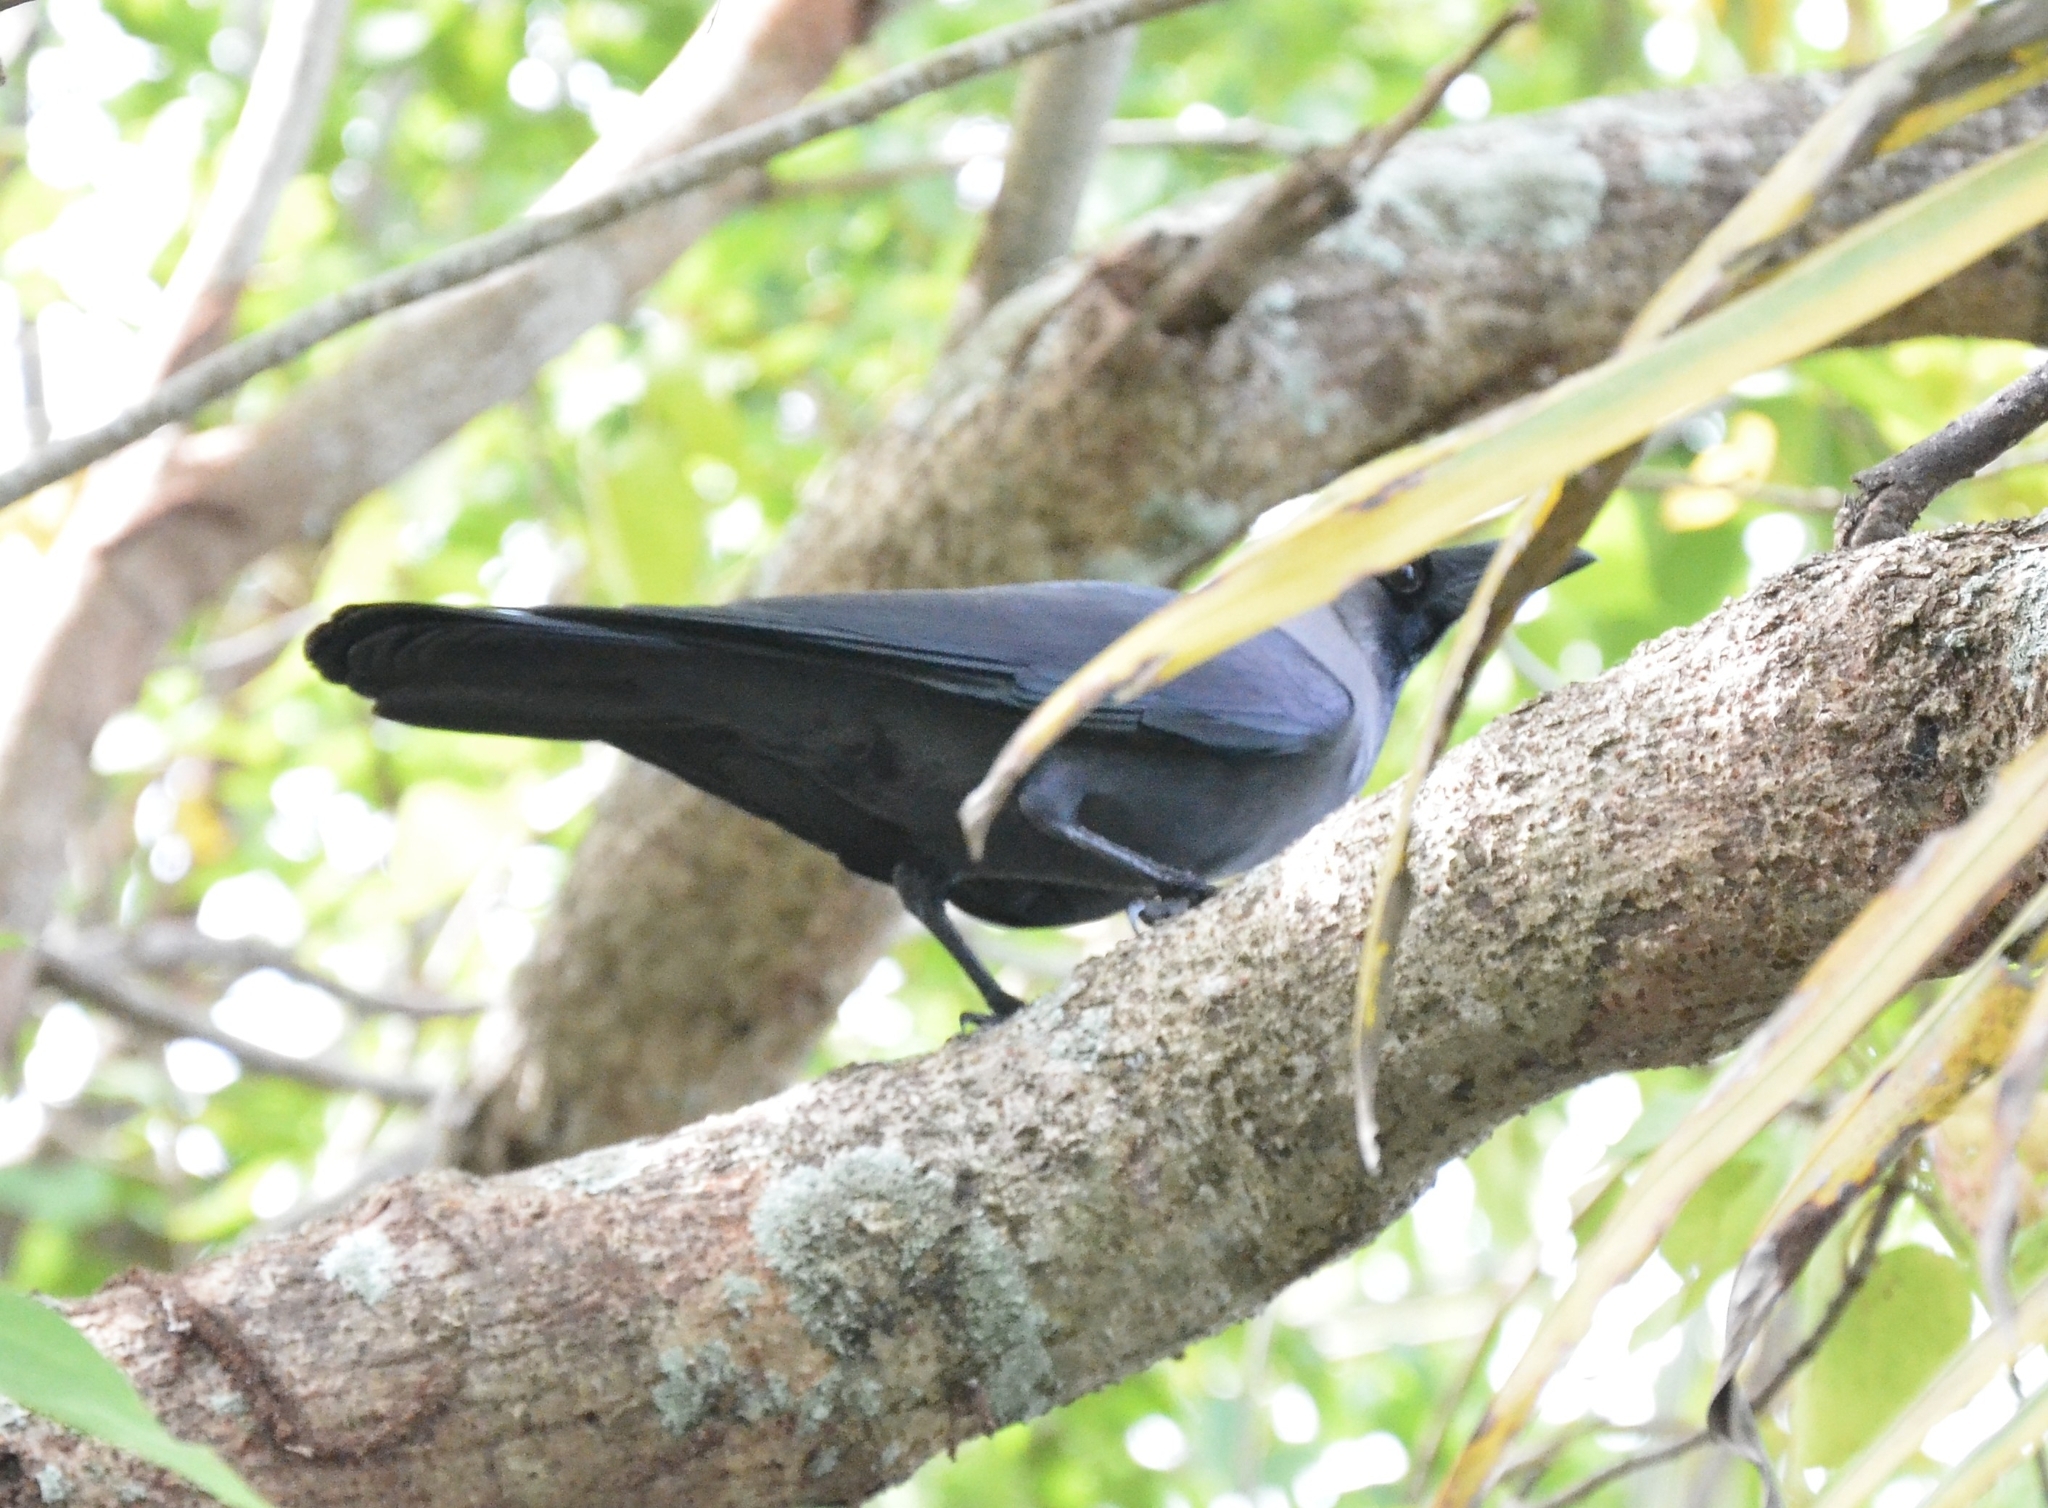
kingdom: Animalia
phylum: Chordata
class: Aves
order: Passeriformes
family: Corvidae
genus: Corvus
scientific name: Corvus splendens
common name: House crow
